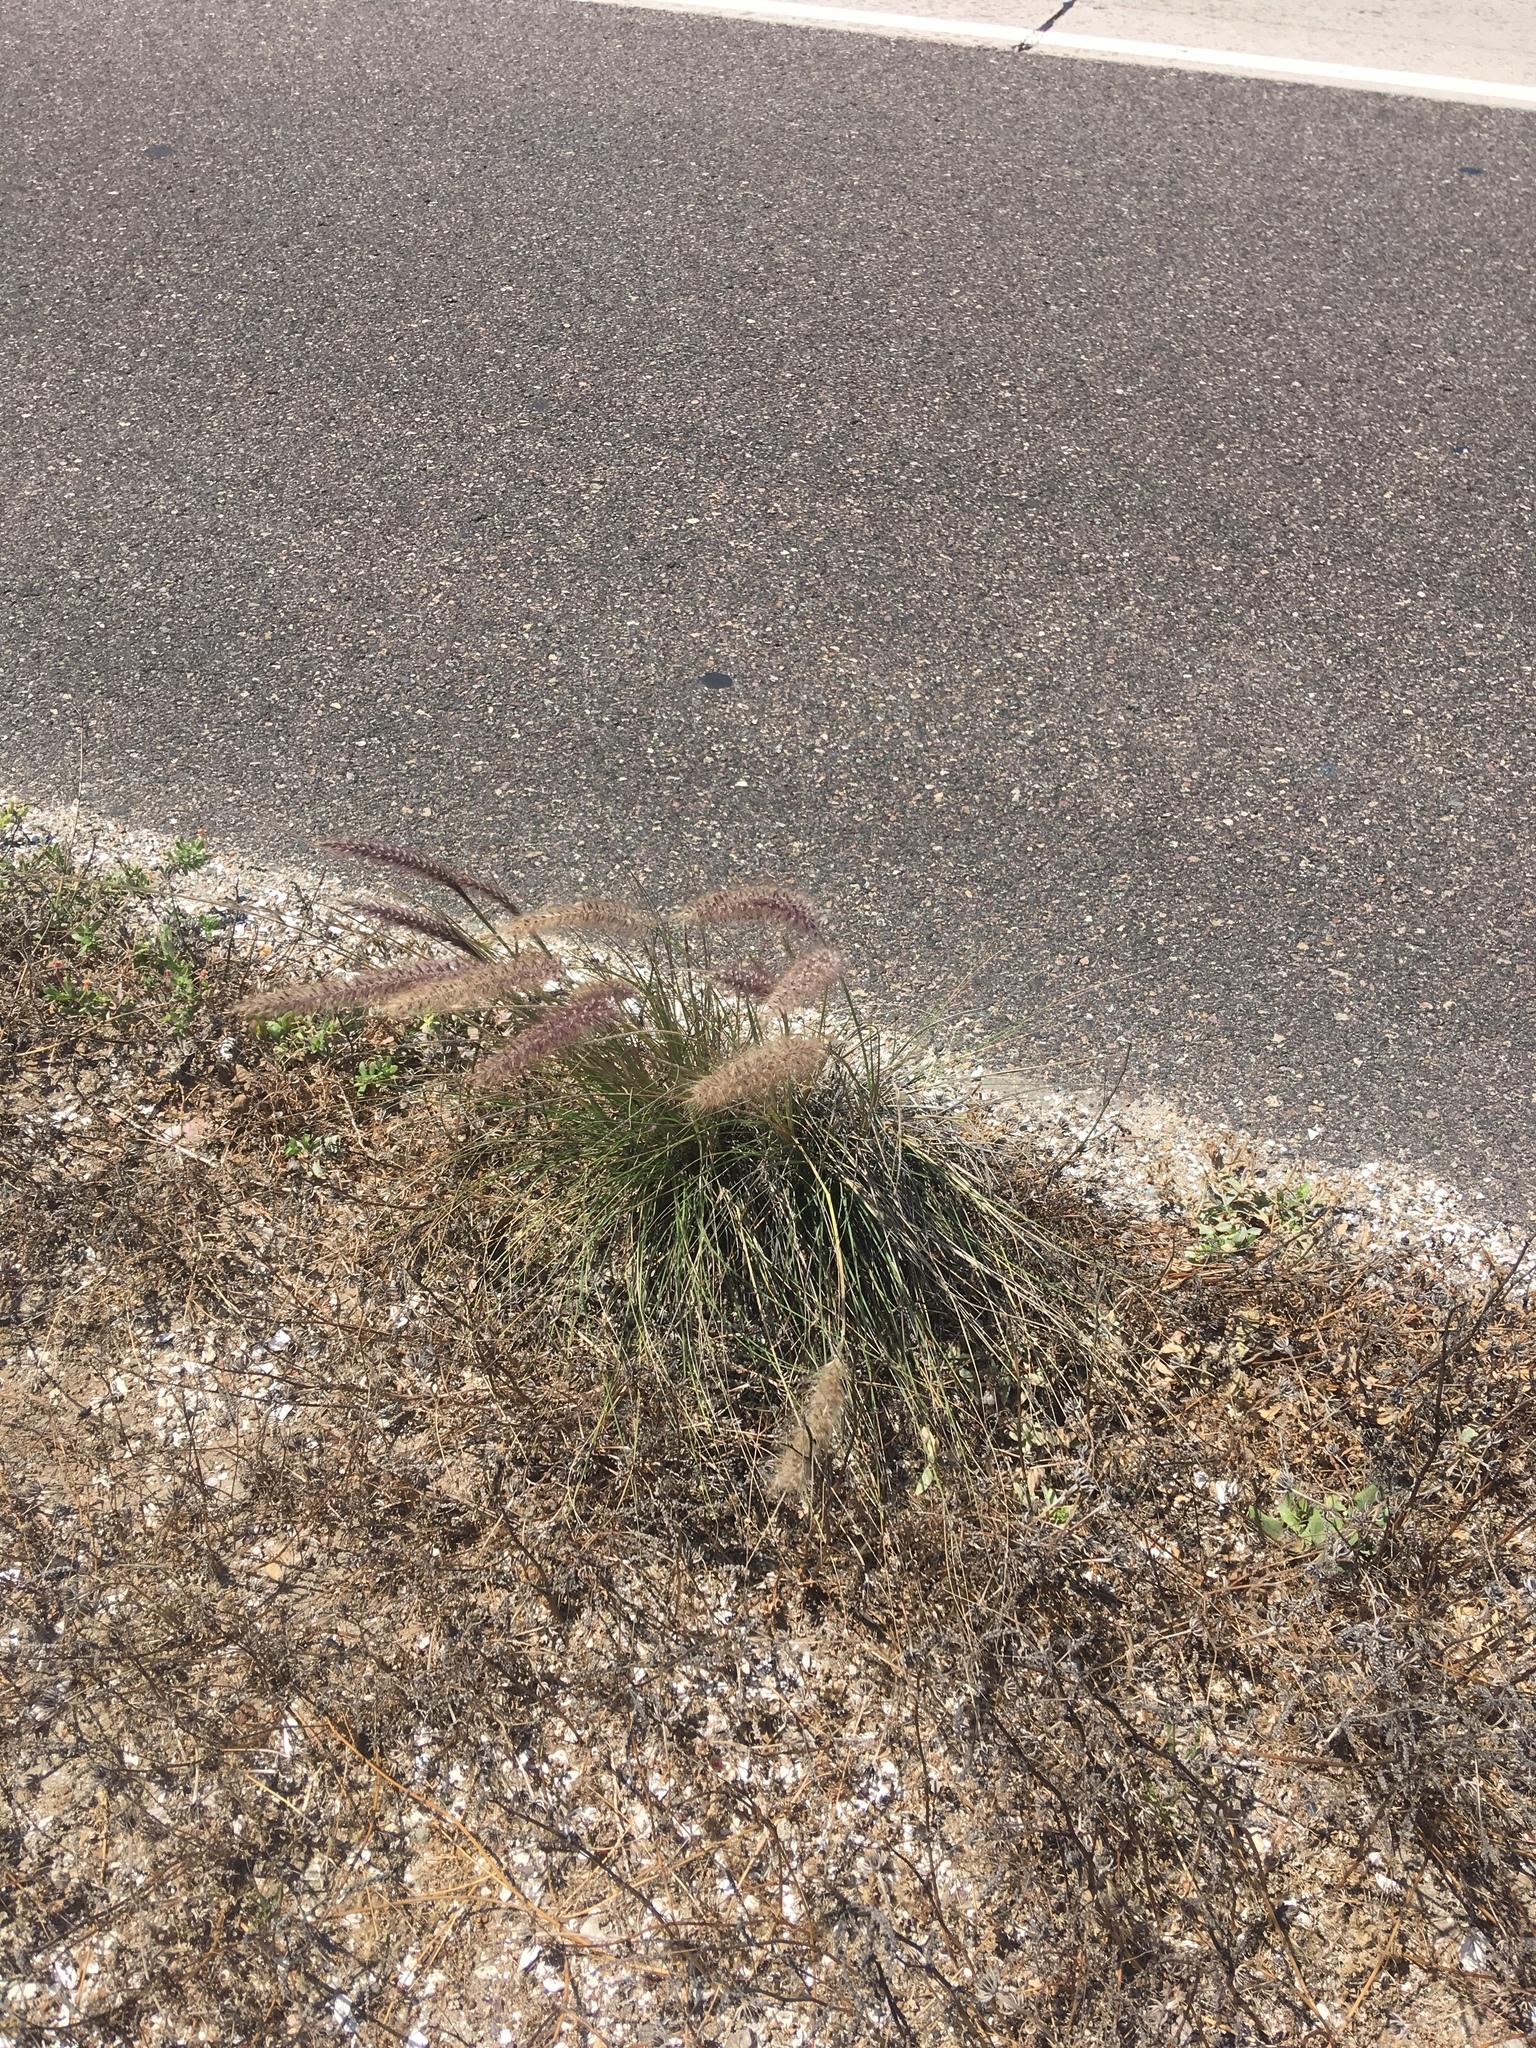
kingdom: Plantae
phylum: Tracheophyta
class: Liliopsida
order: Poales
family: Poaceae
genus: Cenchrus
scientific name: Cenchrus setaceus
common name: Crimson fountaingrass
